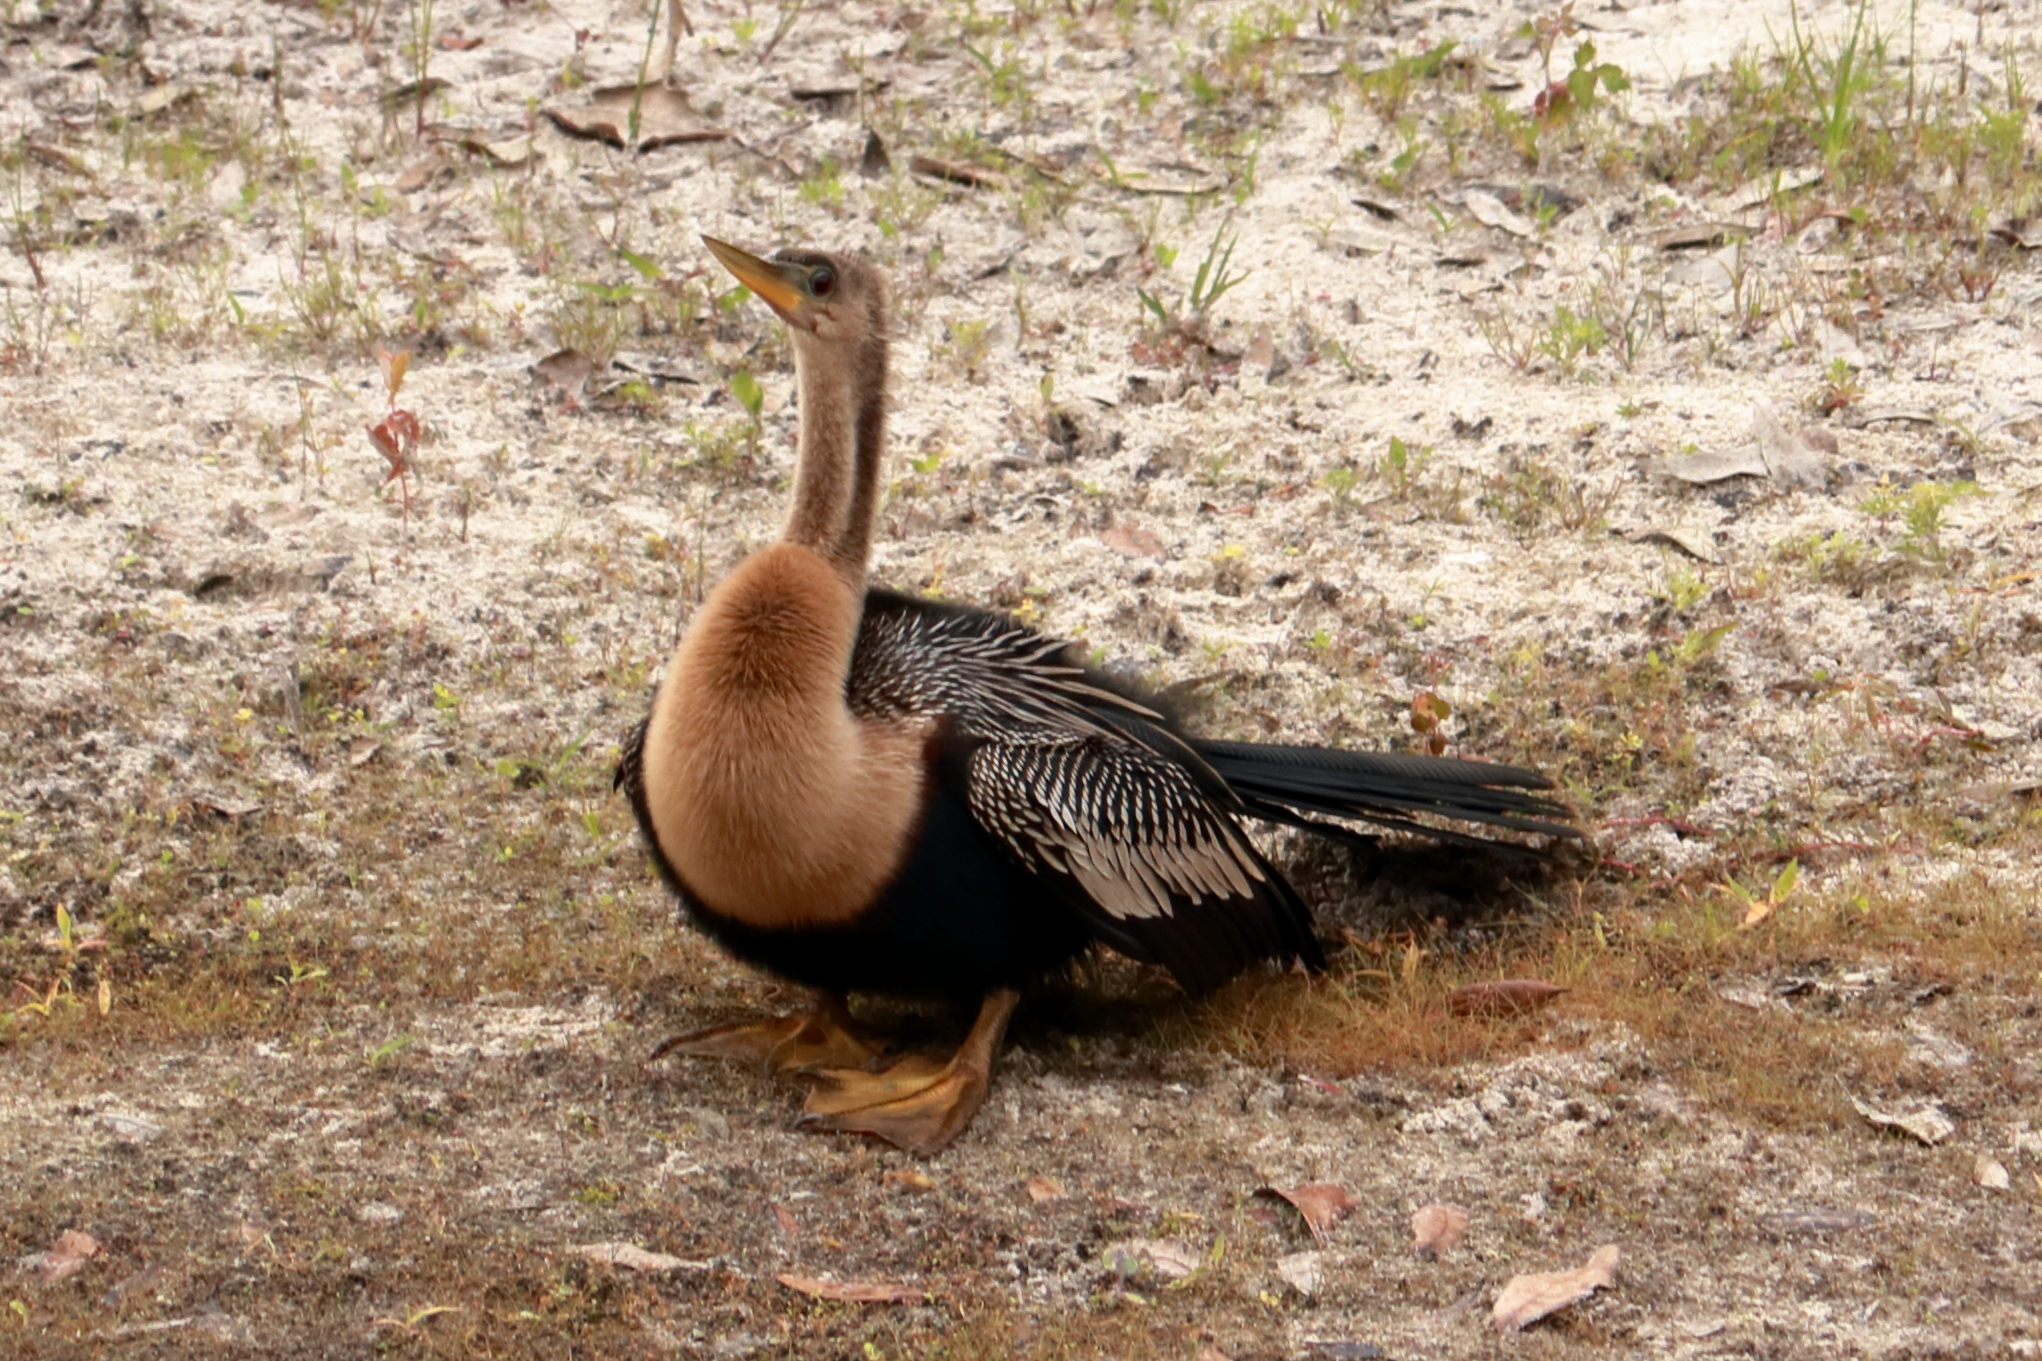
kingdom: Animalia
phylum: Chordata
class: Aves
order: Suliformes
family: Anhingidae
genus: Anhinga
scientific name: Anhinga anhinga
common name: Anhinga
